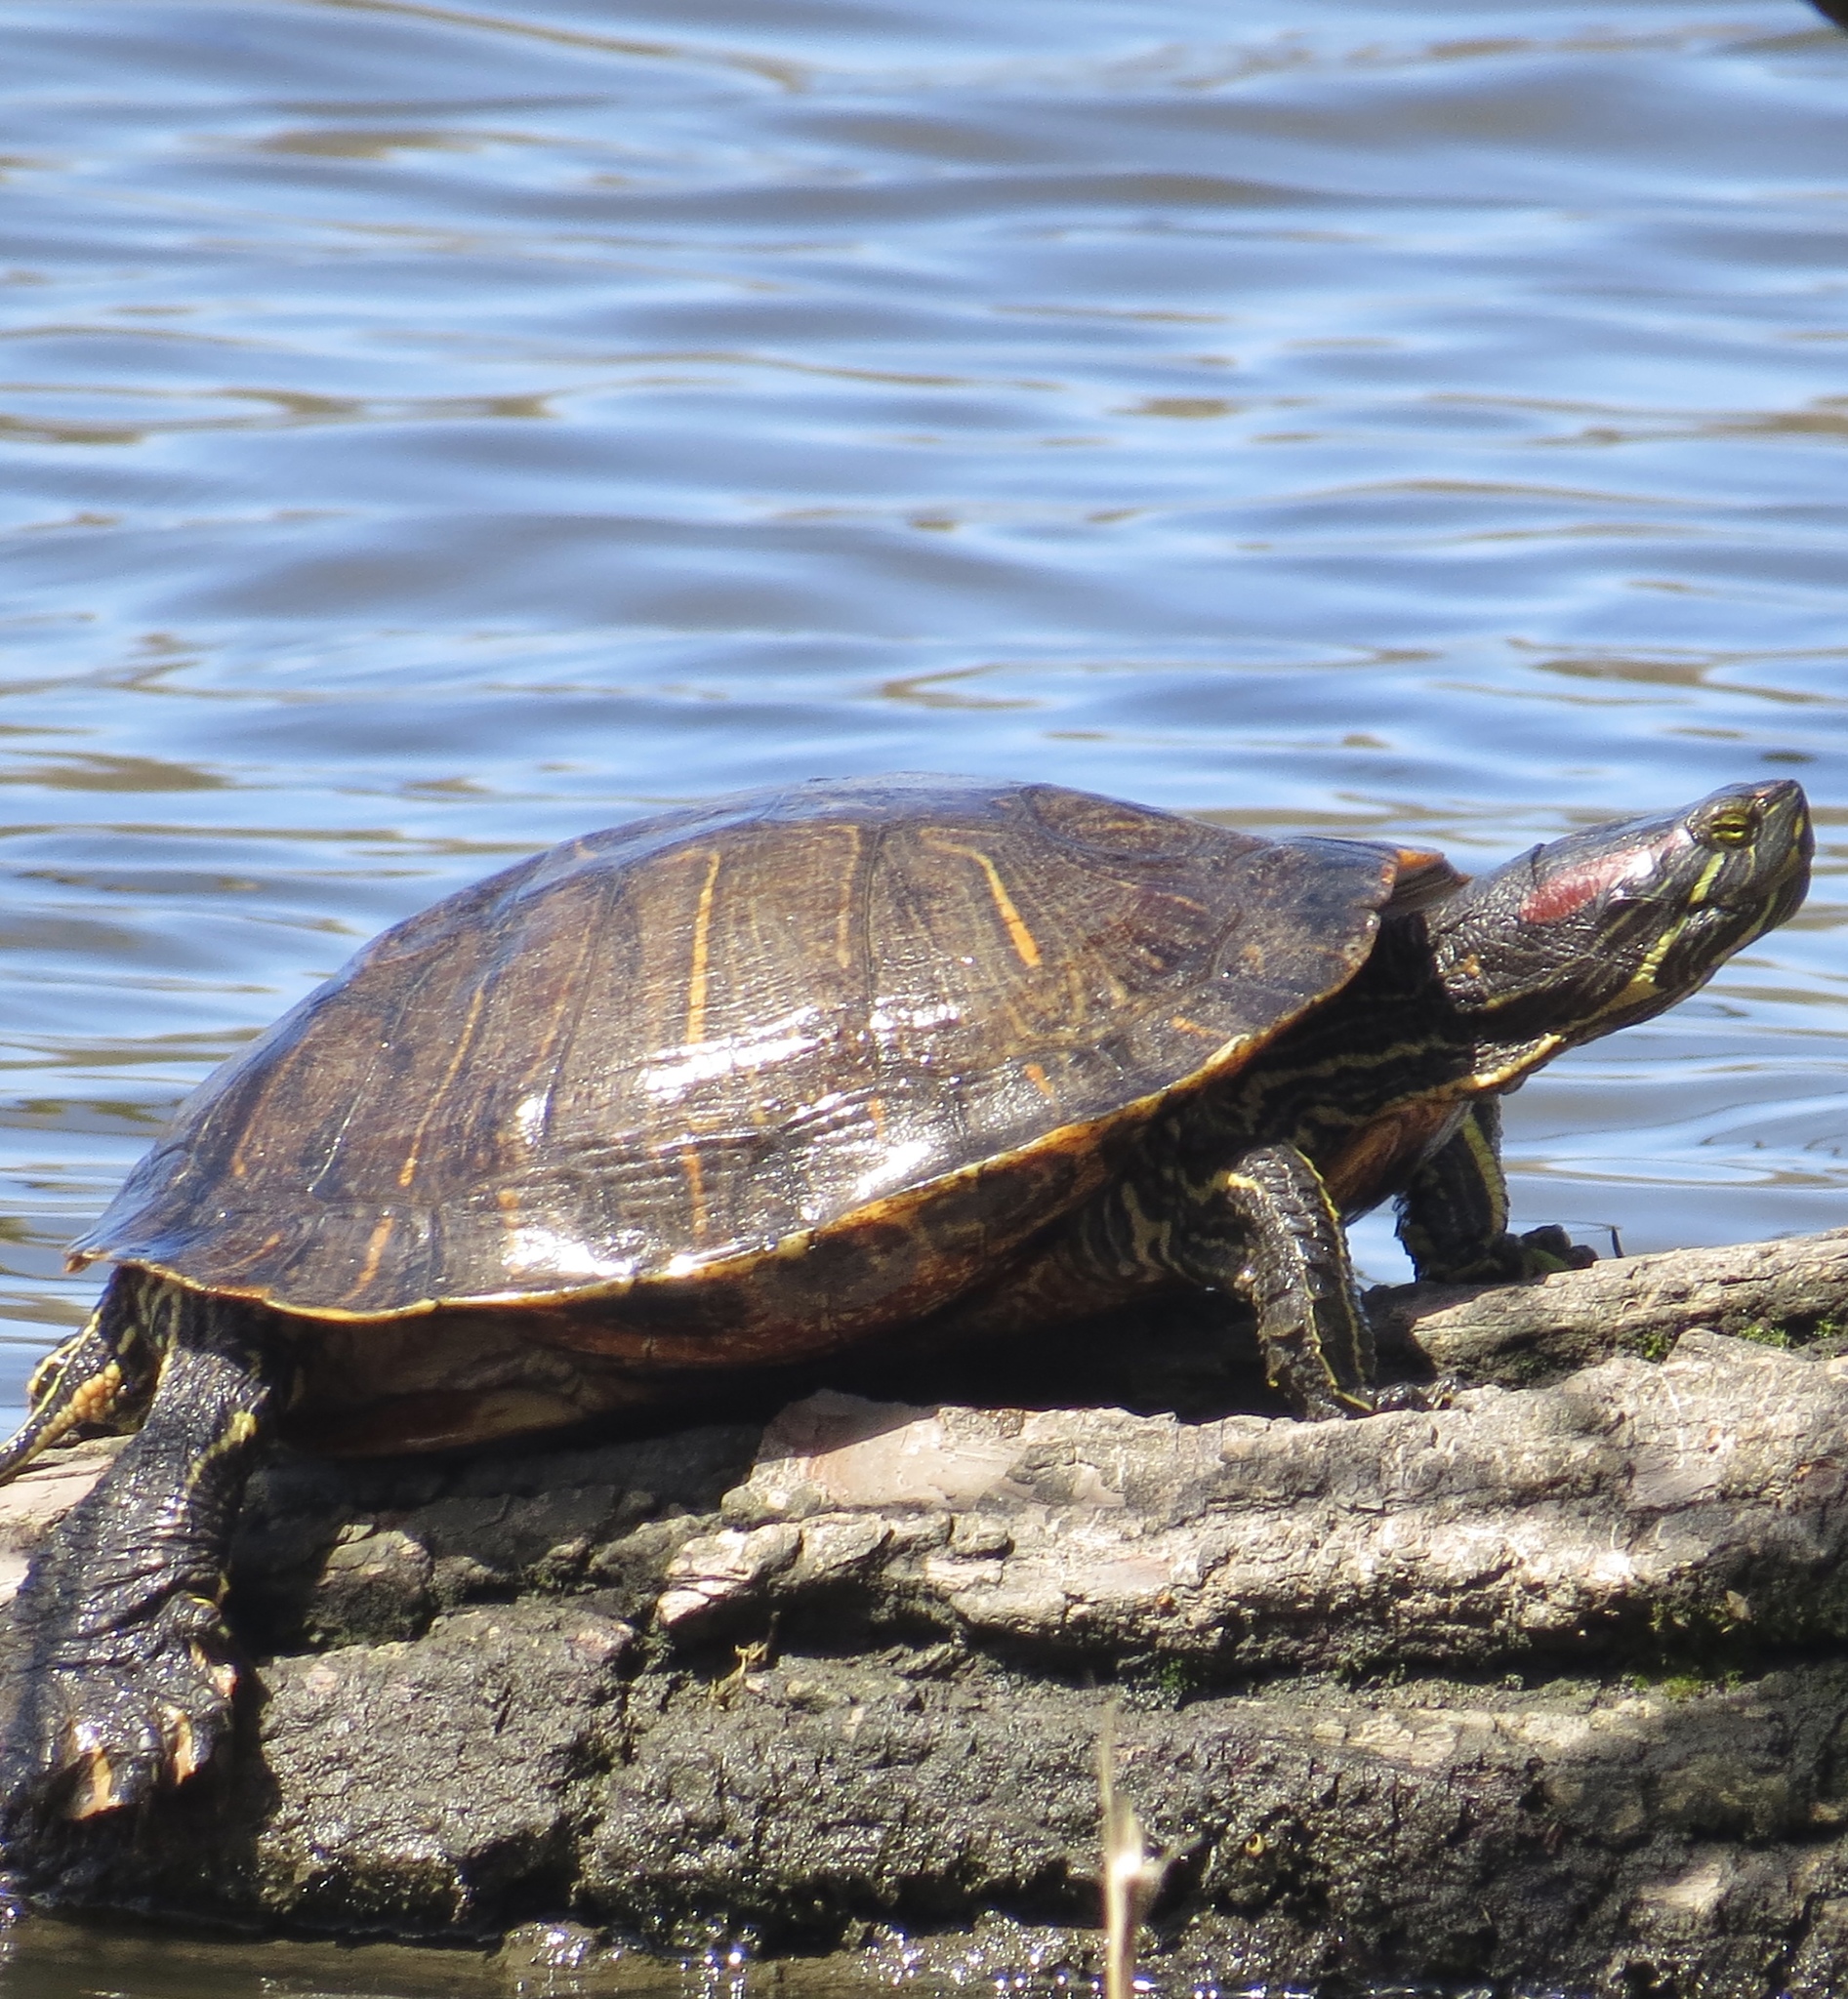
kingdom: Animalia
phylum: Chordata
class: Testudines
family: Emydidae
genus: Trachemys
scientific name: Trachemys scripta
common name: Slider
